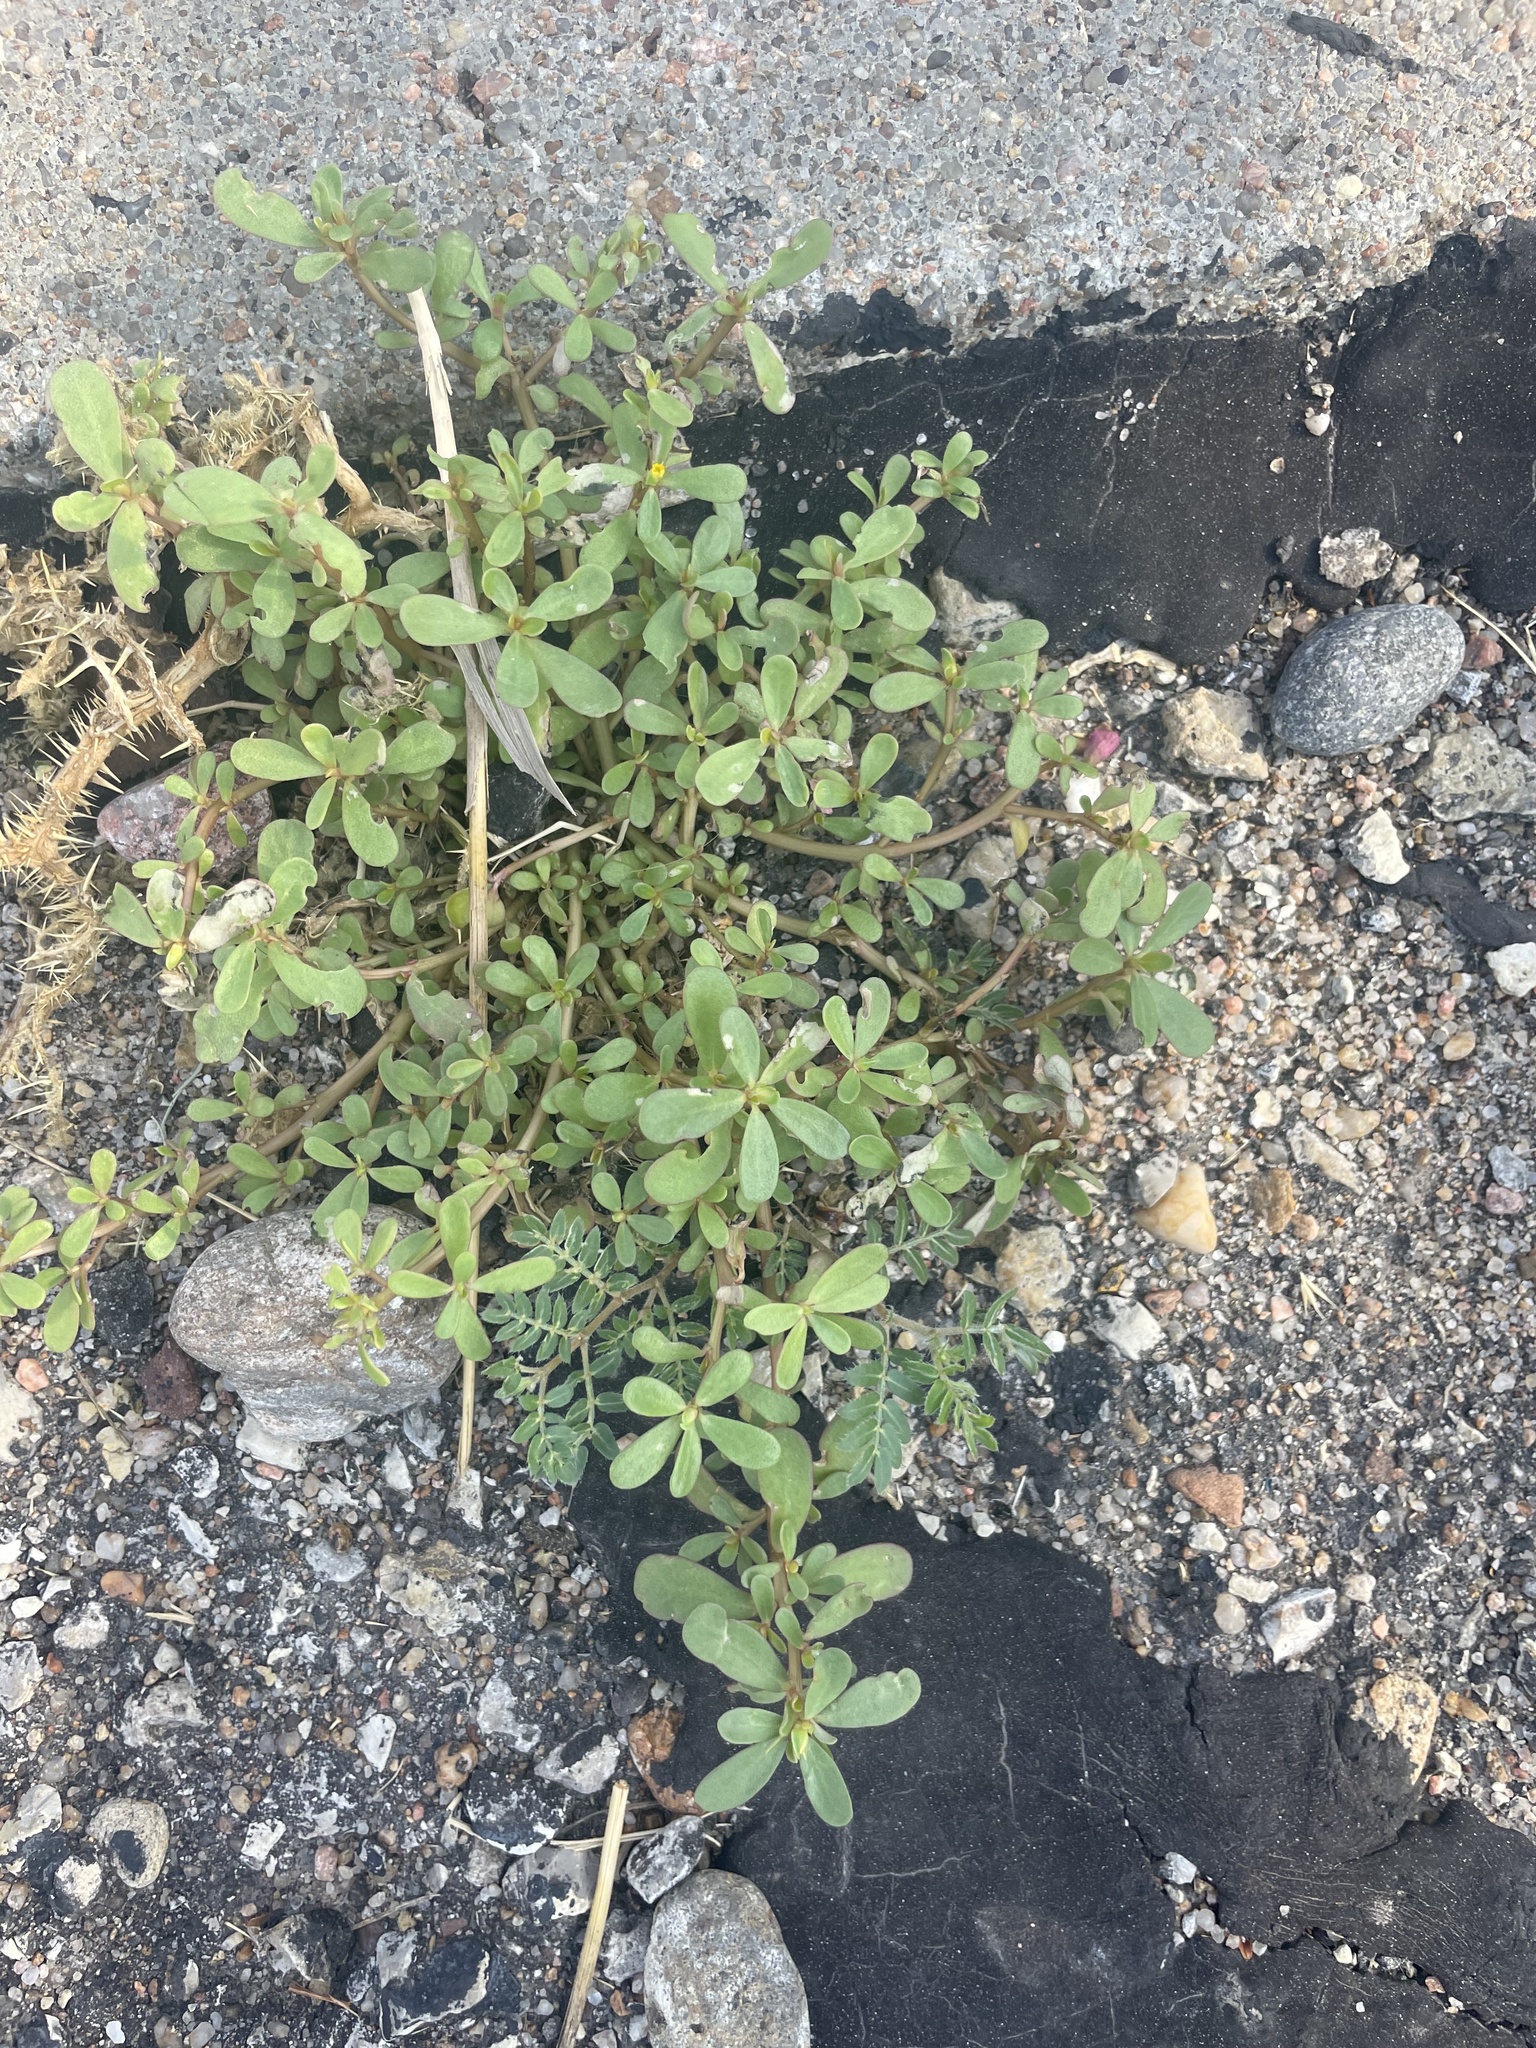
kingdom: Plantae
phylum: Tracheophyta
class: Magnoliopsida
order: Caryophyllales
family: Portulacaceae
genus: Portulaca
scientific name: Portulaca oleracea
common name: Common purslane
